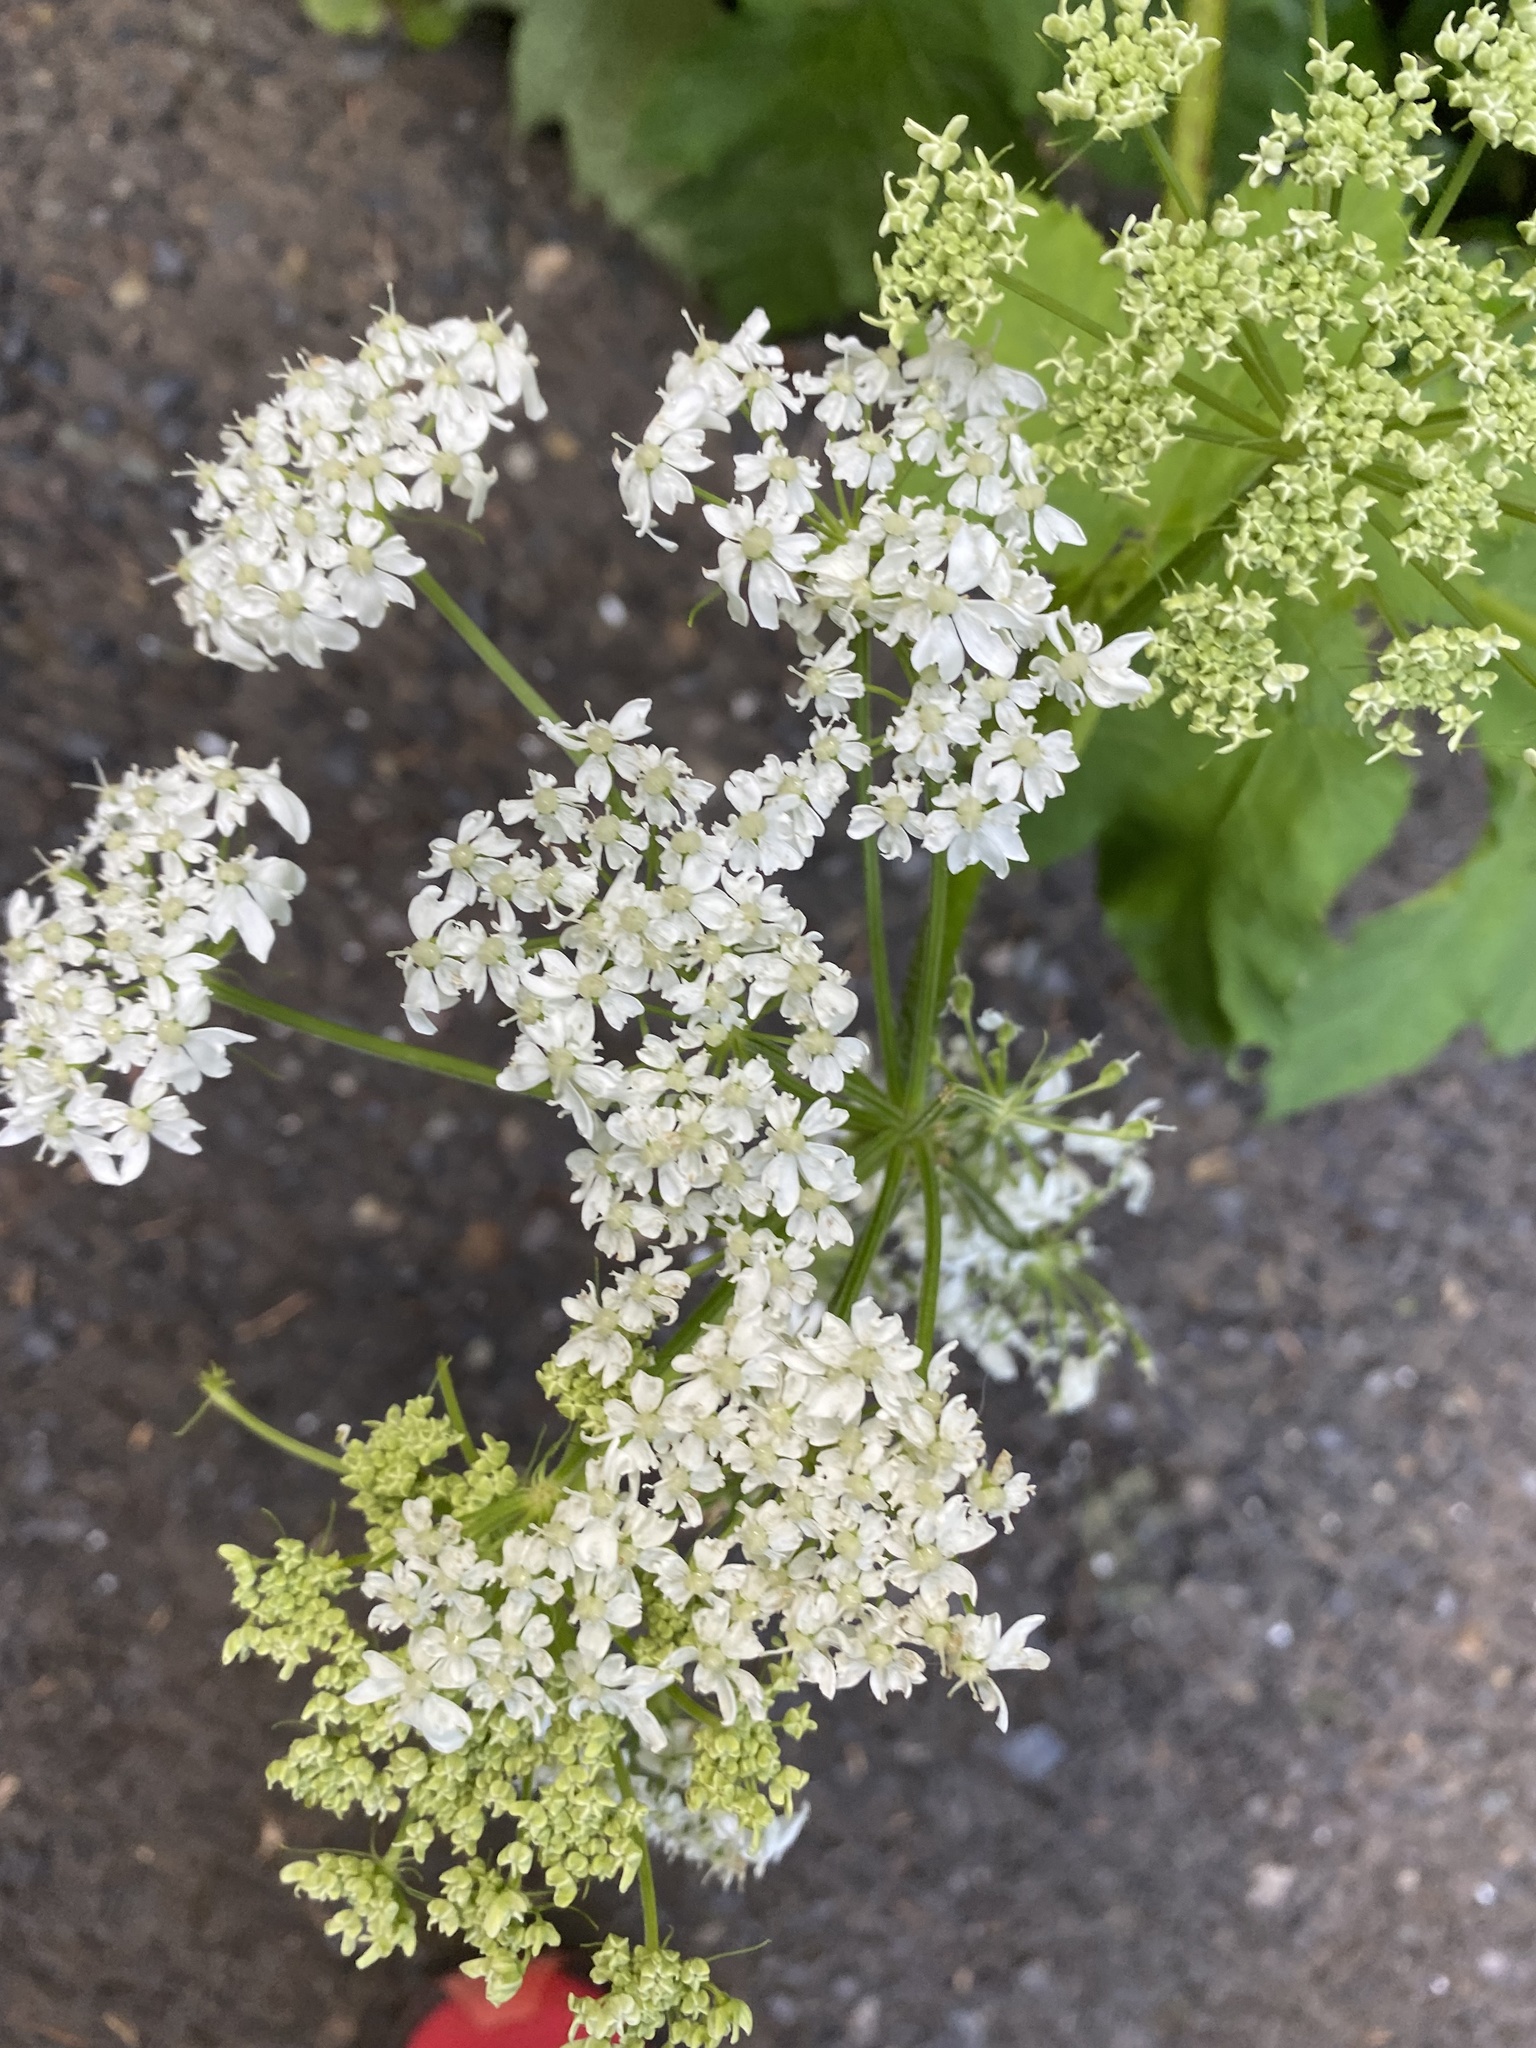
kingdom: Plantae
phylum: Tracheophyta
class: Magnoliopsida
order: Apiales
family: Apiaceae
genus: Heracleum
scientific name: Heracleum maximum
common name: American cow parsnip
